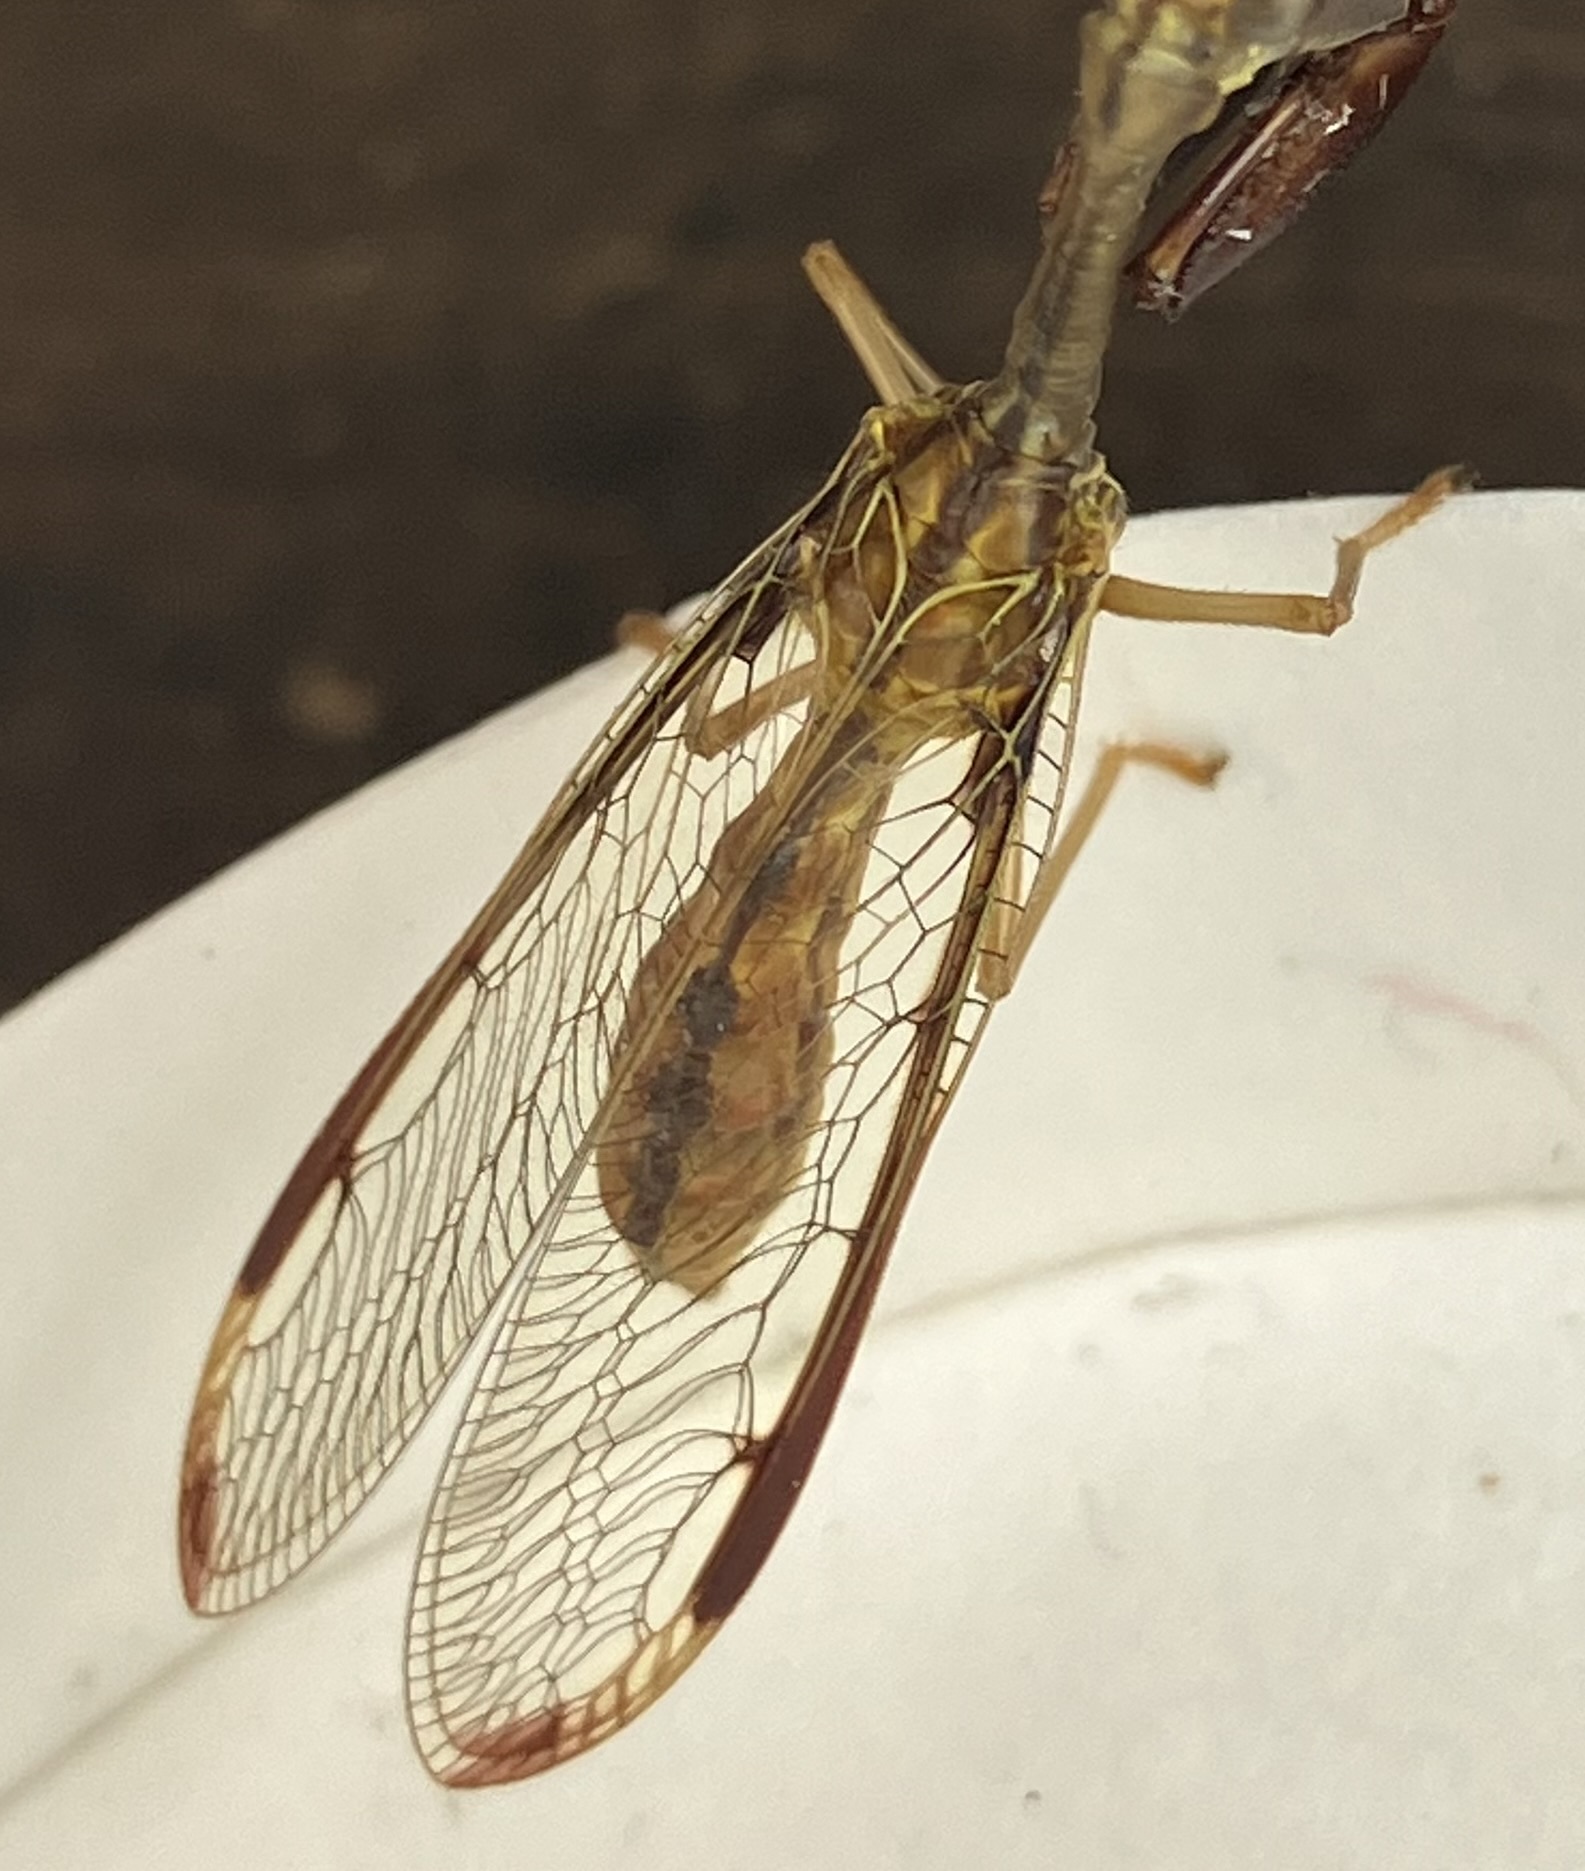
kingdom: Animalia
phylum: Arthropoda
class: Insecta
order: Neuroptera
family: Mantispidae
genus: Dicromantispa
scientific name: Dicromantispa interrupta
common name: Four-spotted mantidfly
